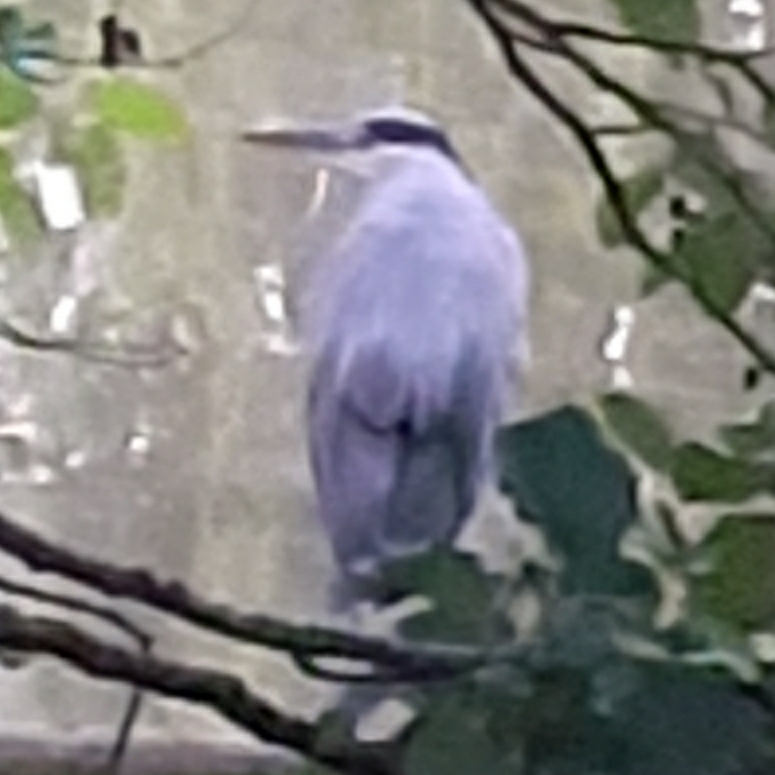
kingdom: Animalia
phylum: Chordata
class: Aves
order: Pelecaniformes
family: Ardeidae
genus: Ardea
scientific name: Ardea cinerea
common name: Grey heron
